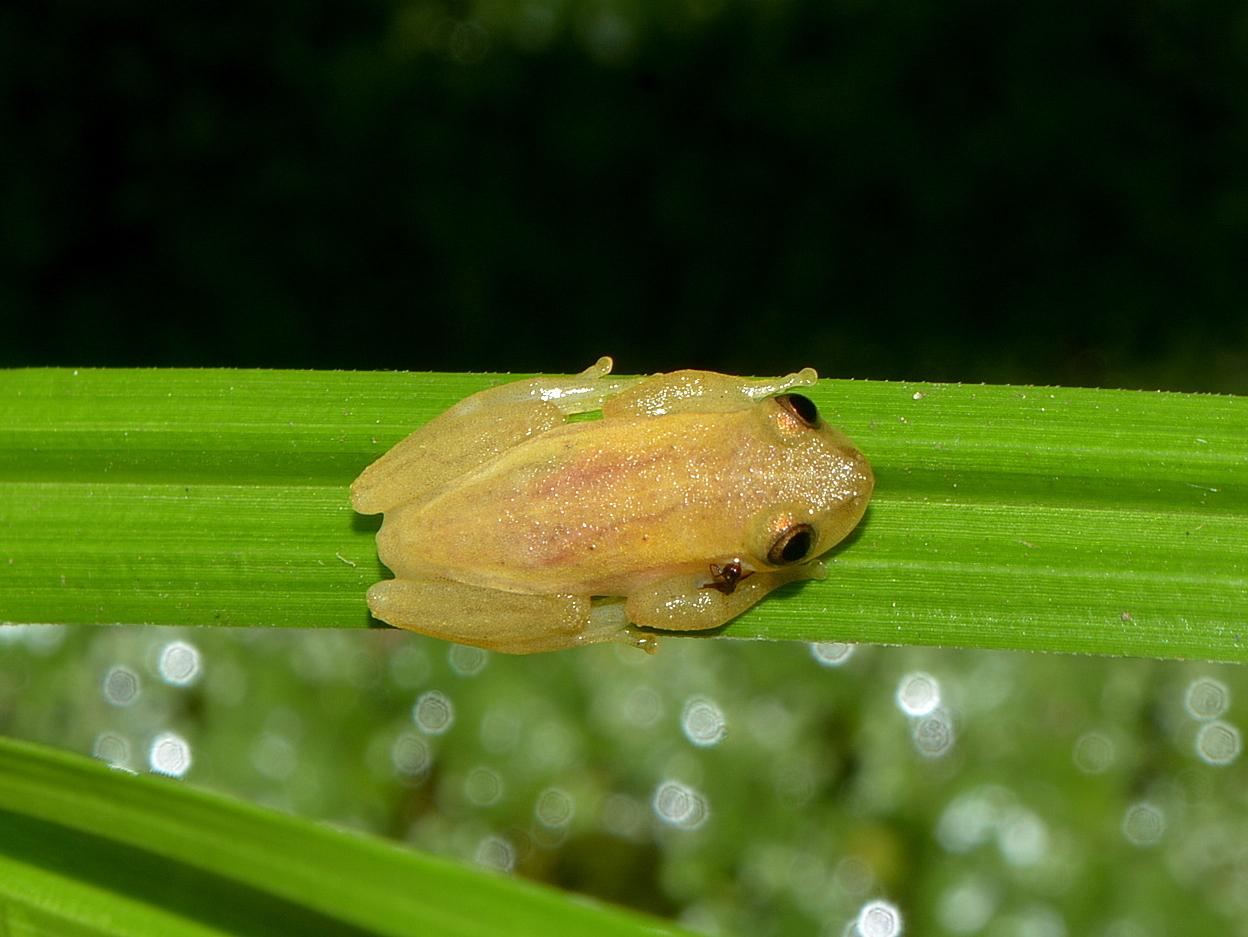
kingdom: Animalia
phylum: Chordata
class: Amphibia
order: Anura
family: Hylidae
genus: Dendropsophus
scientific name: Dendropsophus sanborni
